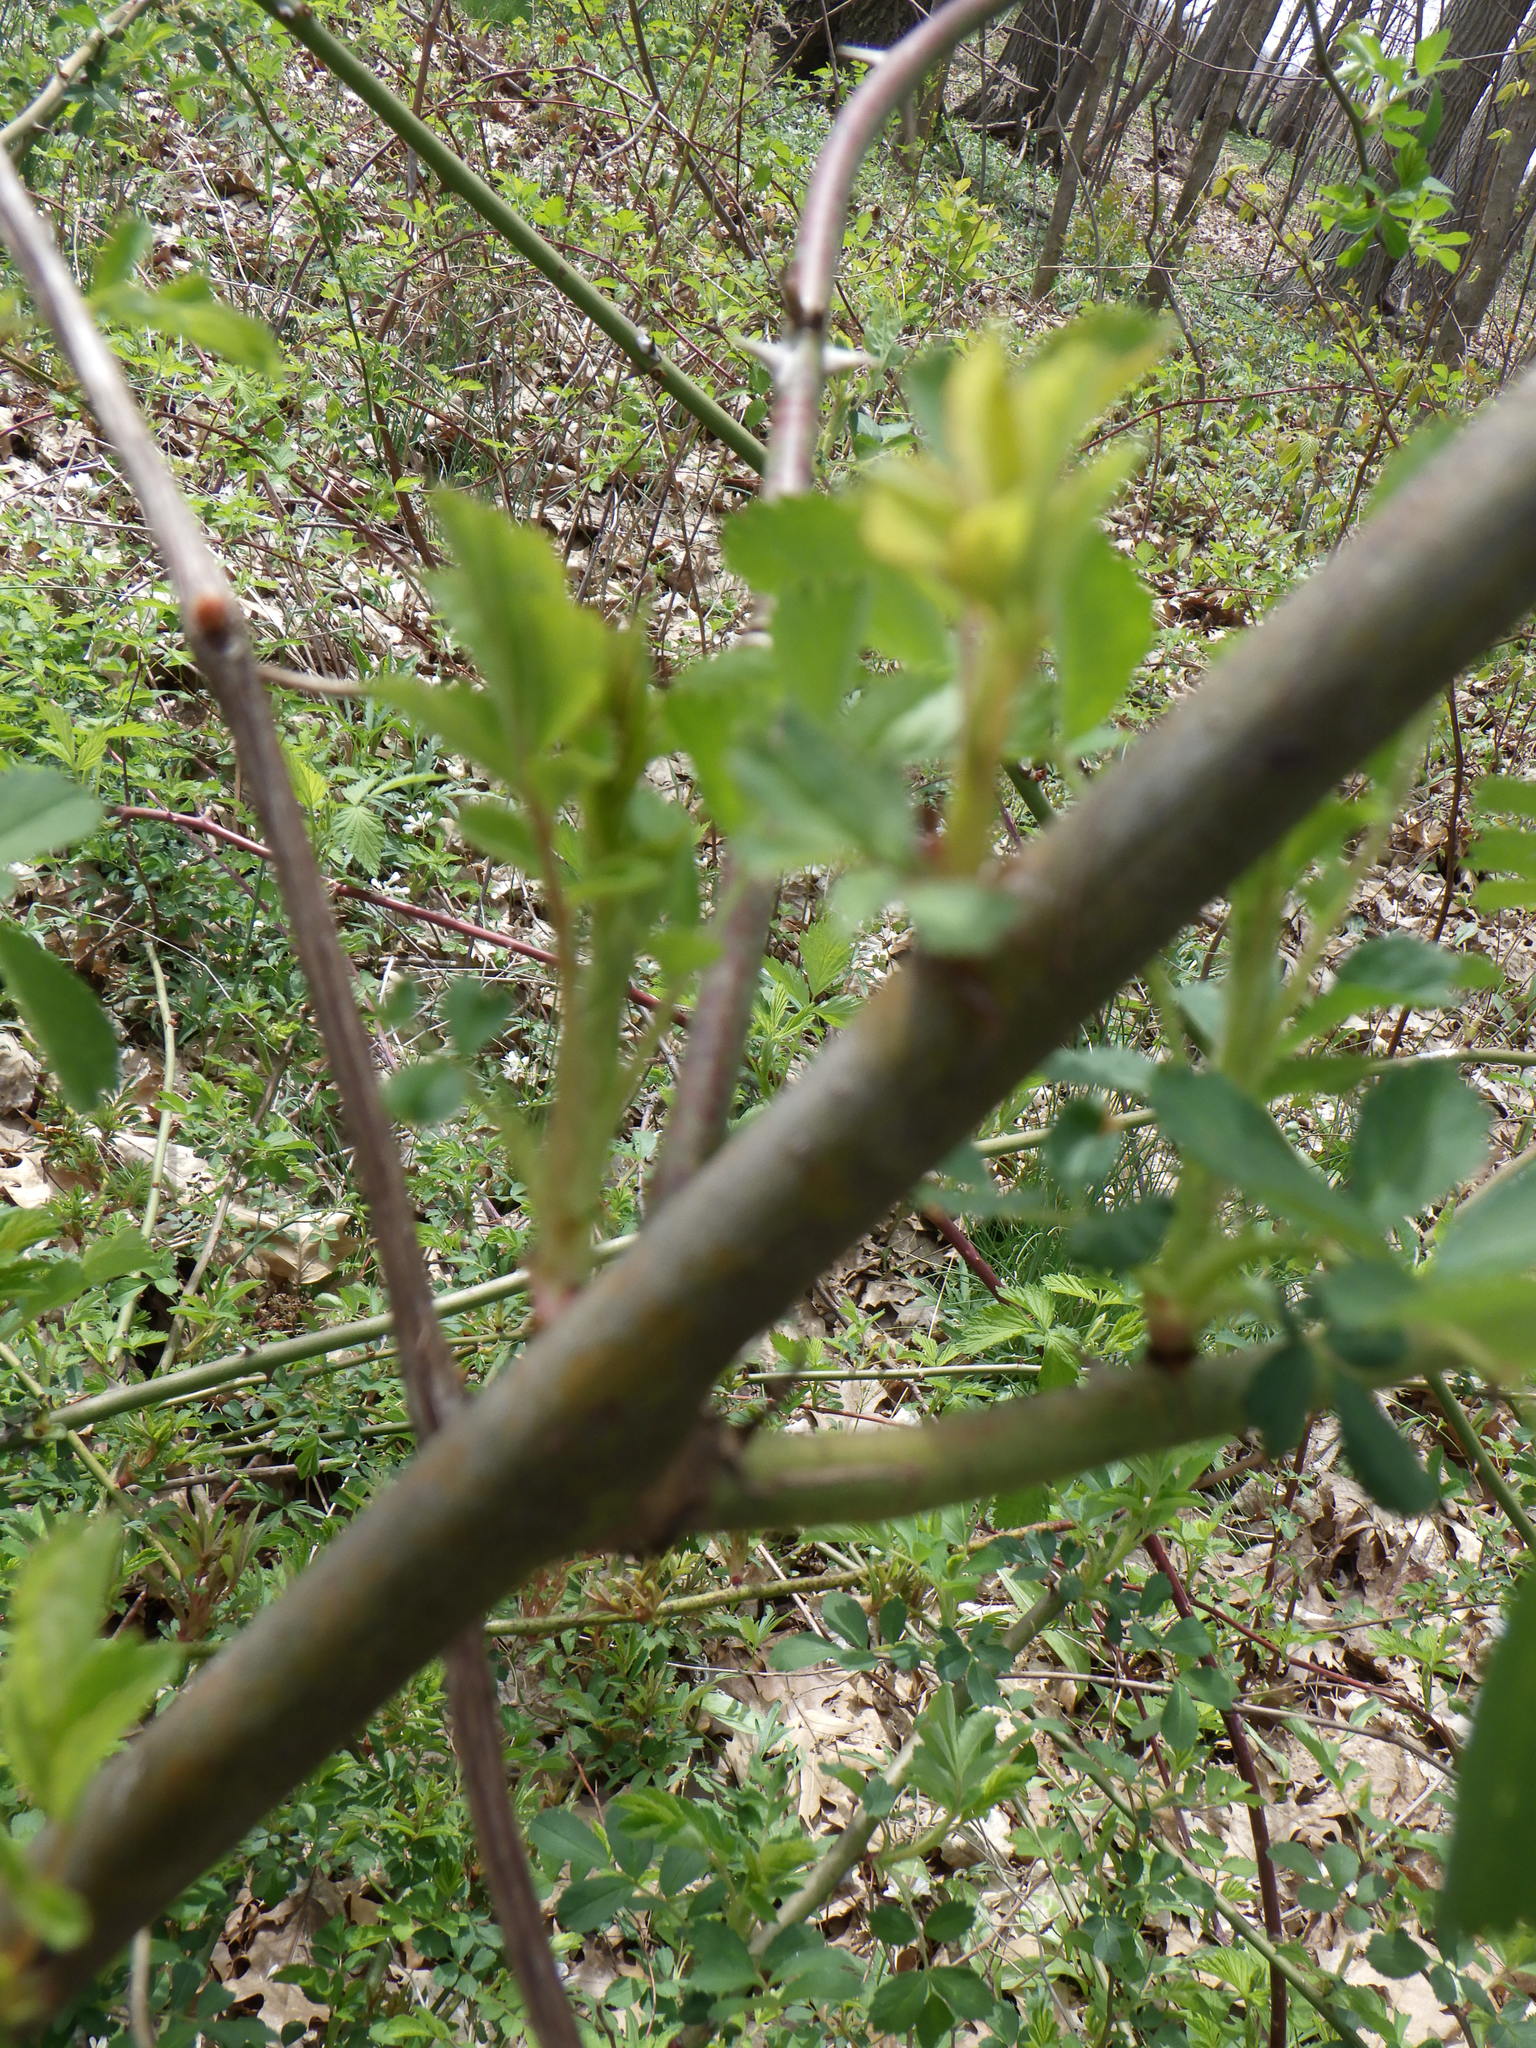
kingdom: Plantae
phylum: Tracheophyta
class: Magnoliopsida
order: Rosales
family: Rosaceae
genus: Rosa
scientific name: Rosa multiflora
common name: Multiflora rose
